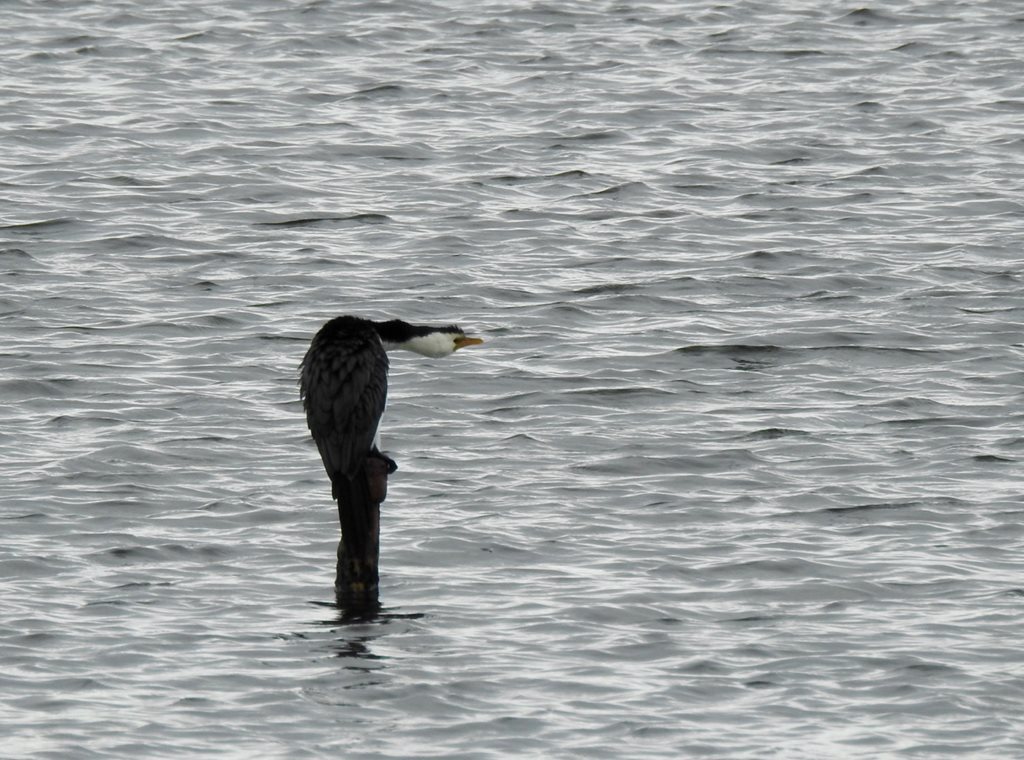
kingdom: Animalia
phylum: Chordata
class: Aves
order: Suliformes
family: Phalacrocoracidae
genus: Microcarbo
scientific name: Microcarbo melanoleucos
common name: Little pied cormorant
